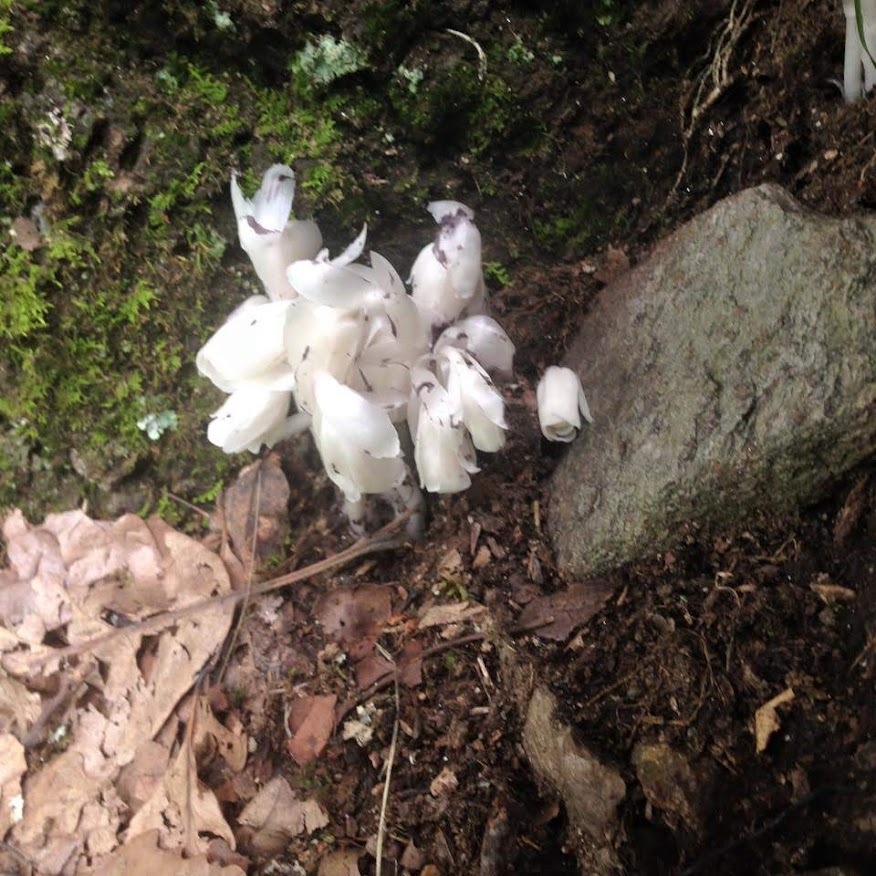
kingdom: Plantae
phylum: Tracheophyta
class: Magnoliopsida
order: Ericales
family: Ericaceae
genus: Monotropa
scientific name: Monotropa uniflora
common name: Convulsion root
